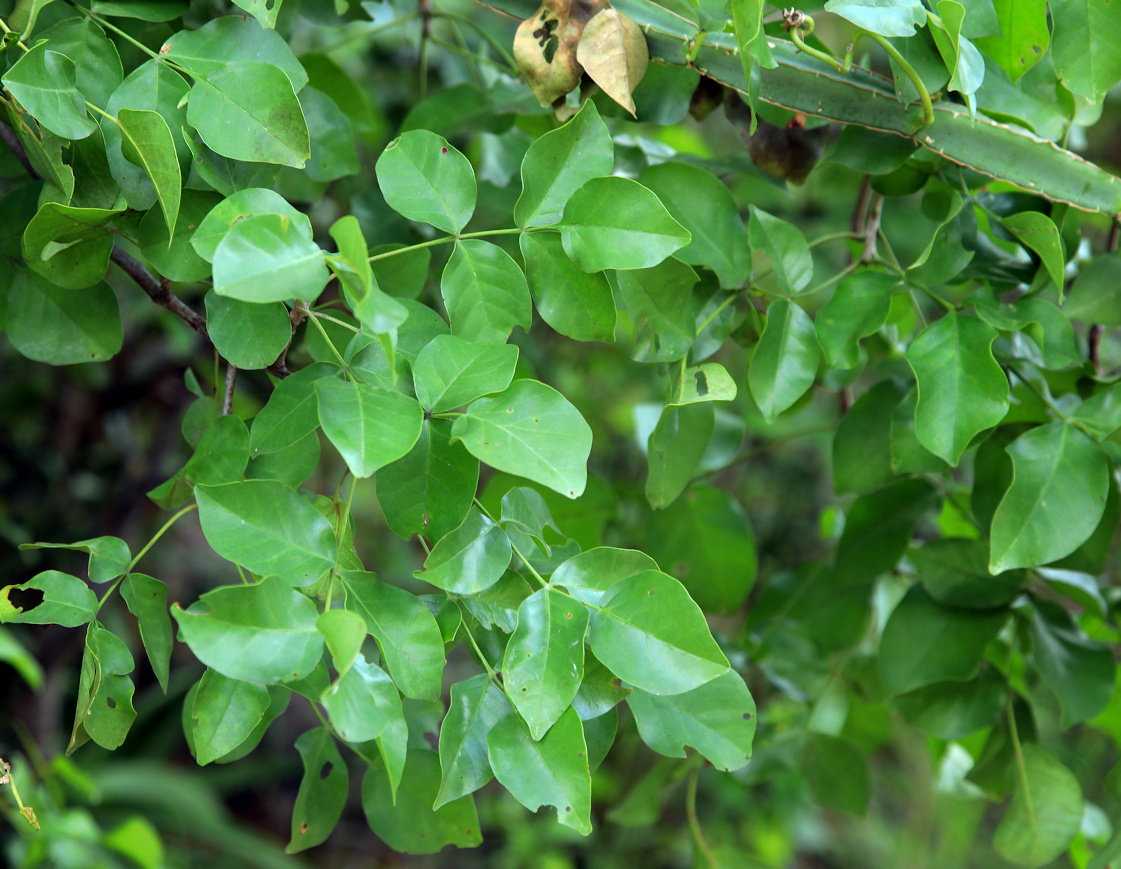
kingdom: Plantae
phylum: Tracheophyta
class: Magnoliopsida
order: Sapindales
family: Anacardiaceae
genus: Lannea
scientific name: Lannea schweinfurthii
